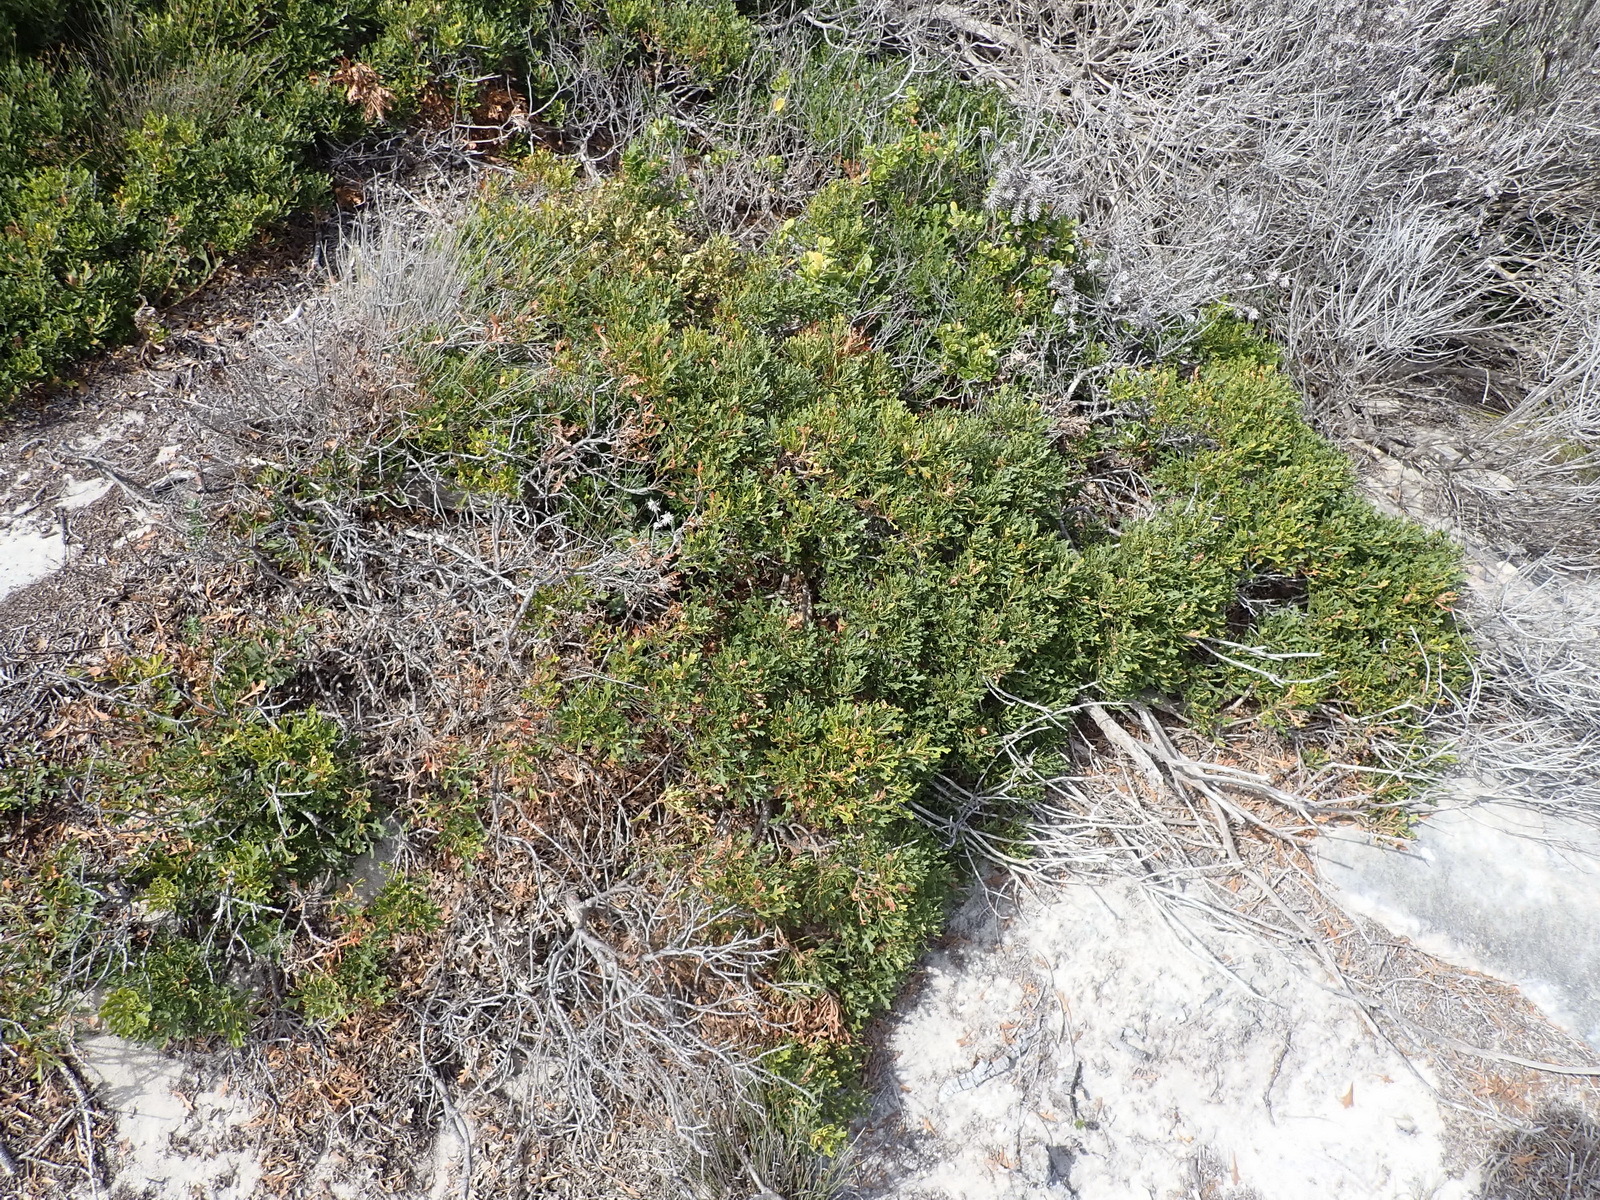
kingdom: Plantae
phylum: Tracheophyta
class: Magnoliopsida
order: Fagales
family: Myricaceae
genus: Morella
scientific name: Morella quercifolia
